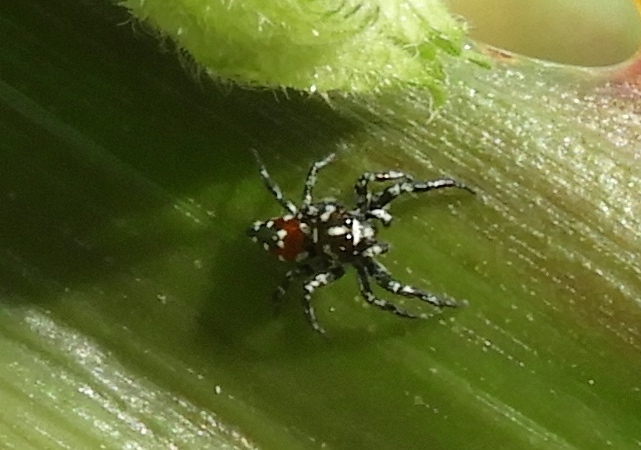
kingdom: Animalia
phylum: Arthropoda
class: Arachnida
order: Araneae
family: Salticidae
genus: Nycerella
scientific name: Nycerella delecta
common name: Jumping spiders
